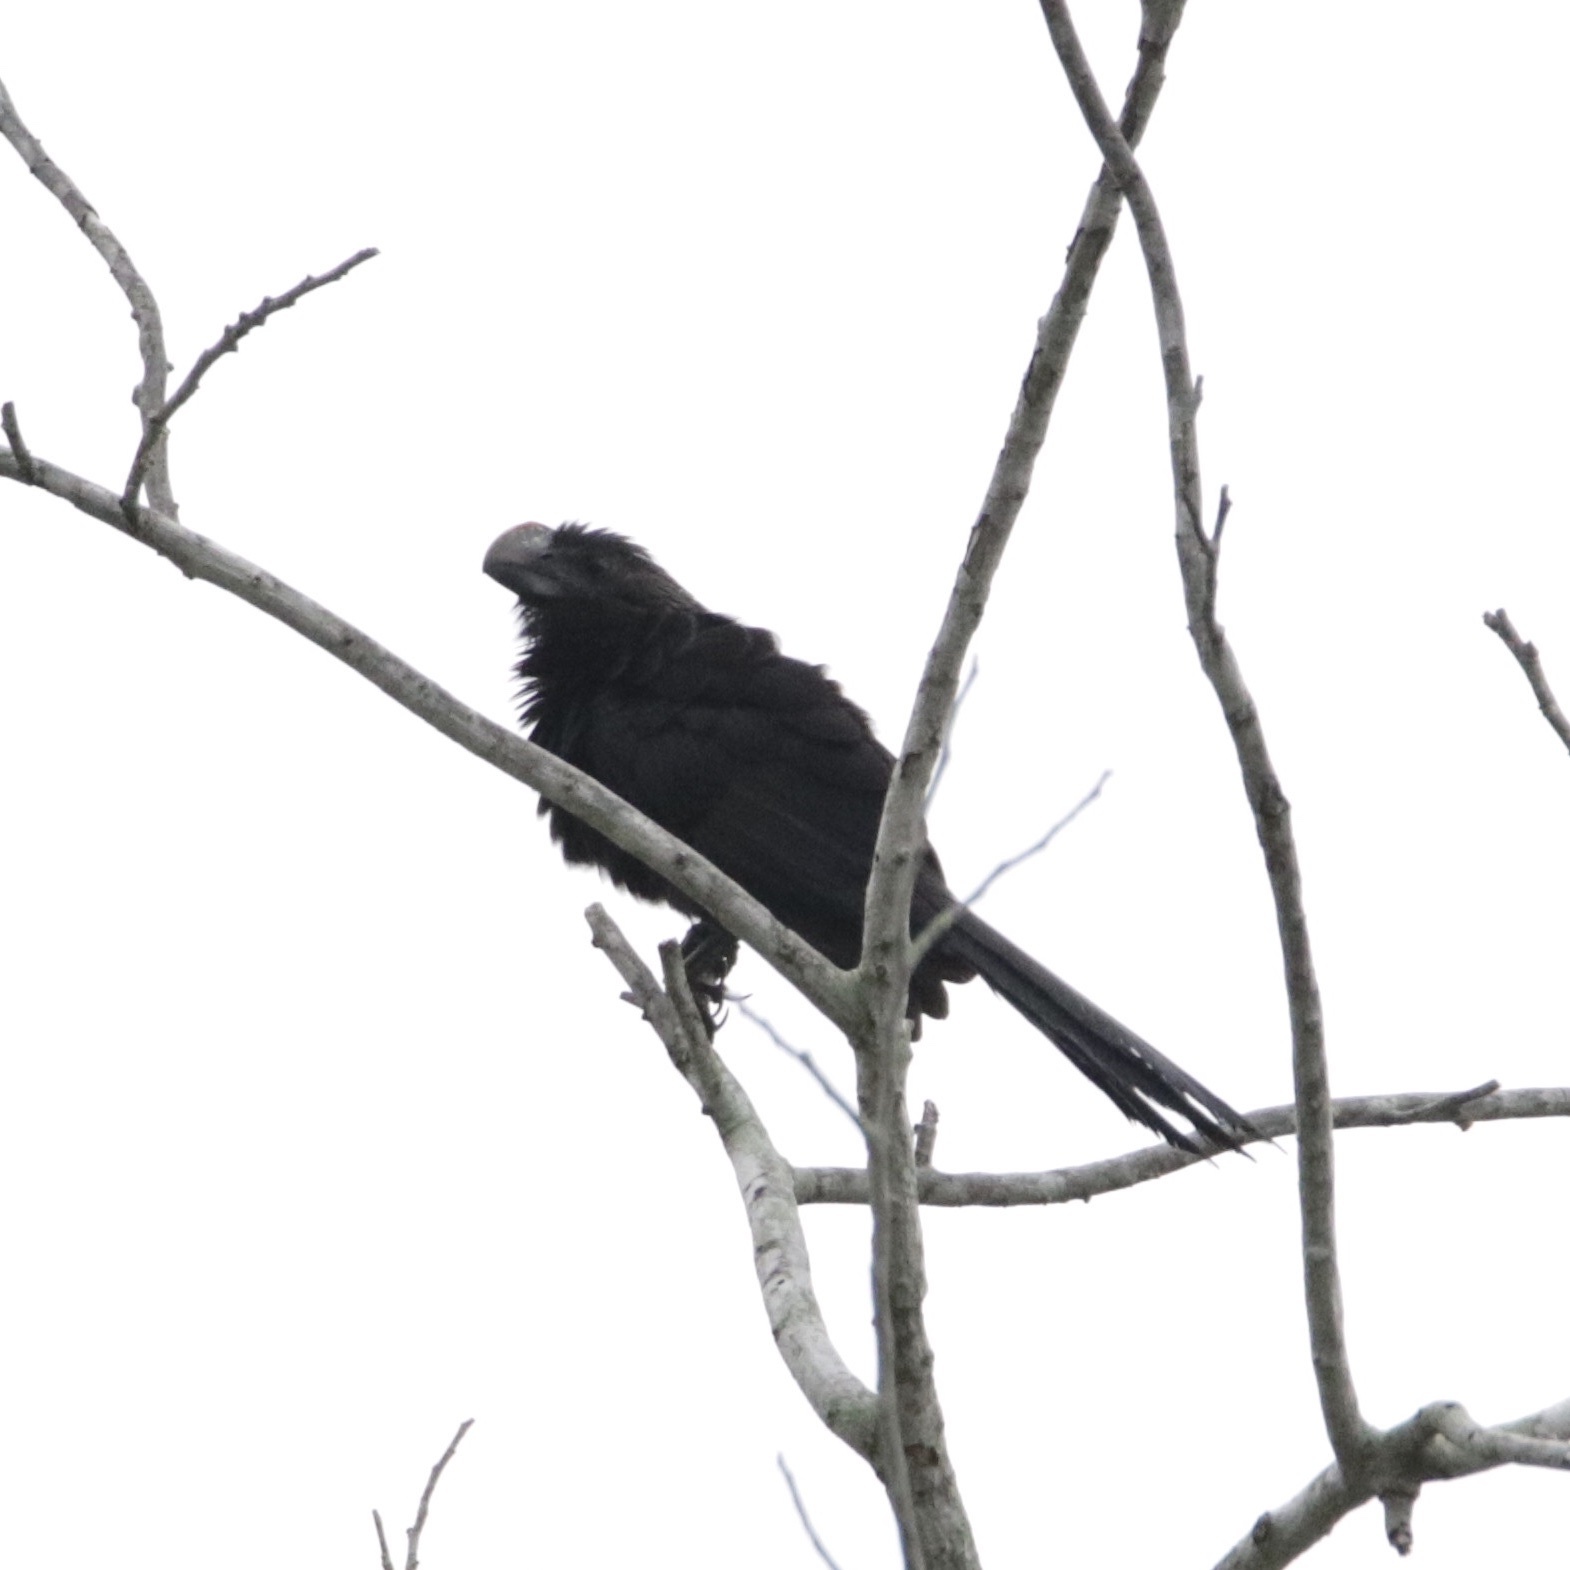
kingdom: Animalia
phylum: Chordata
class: Aves
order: Cuculiformes
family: Cuculidae
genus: Crotophaga
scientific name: Crotophaga ani
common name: Smooth-billed ani
